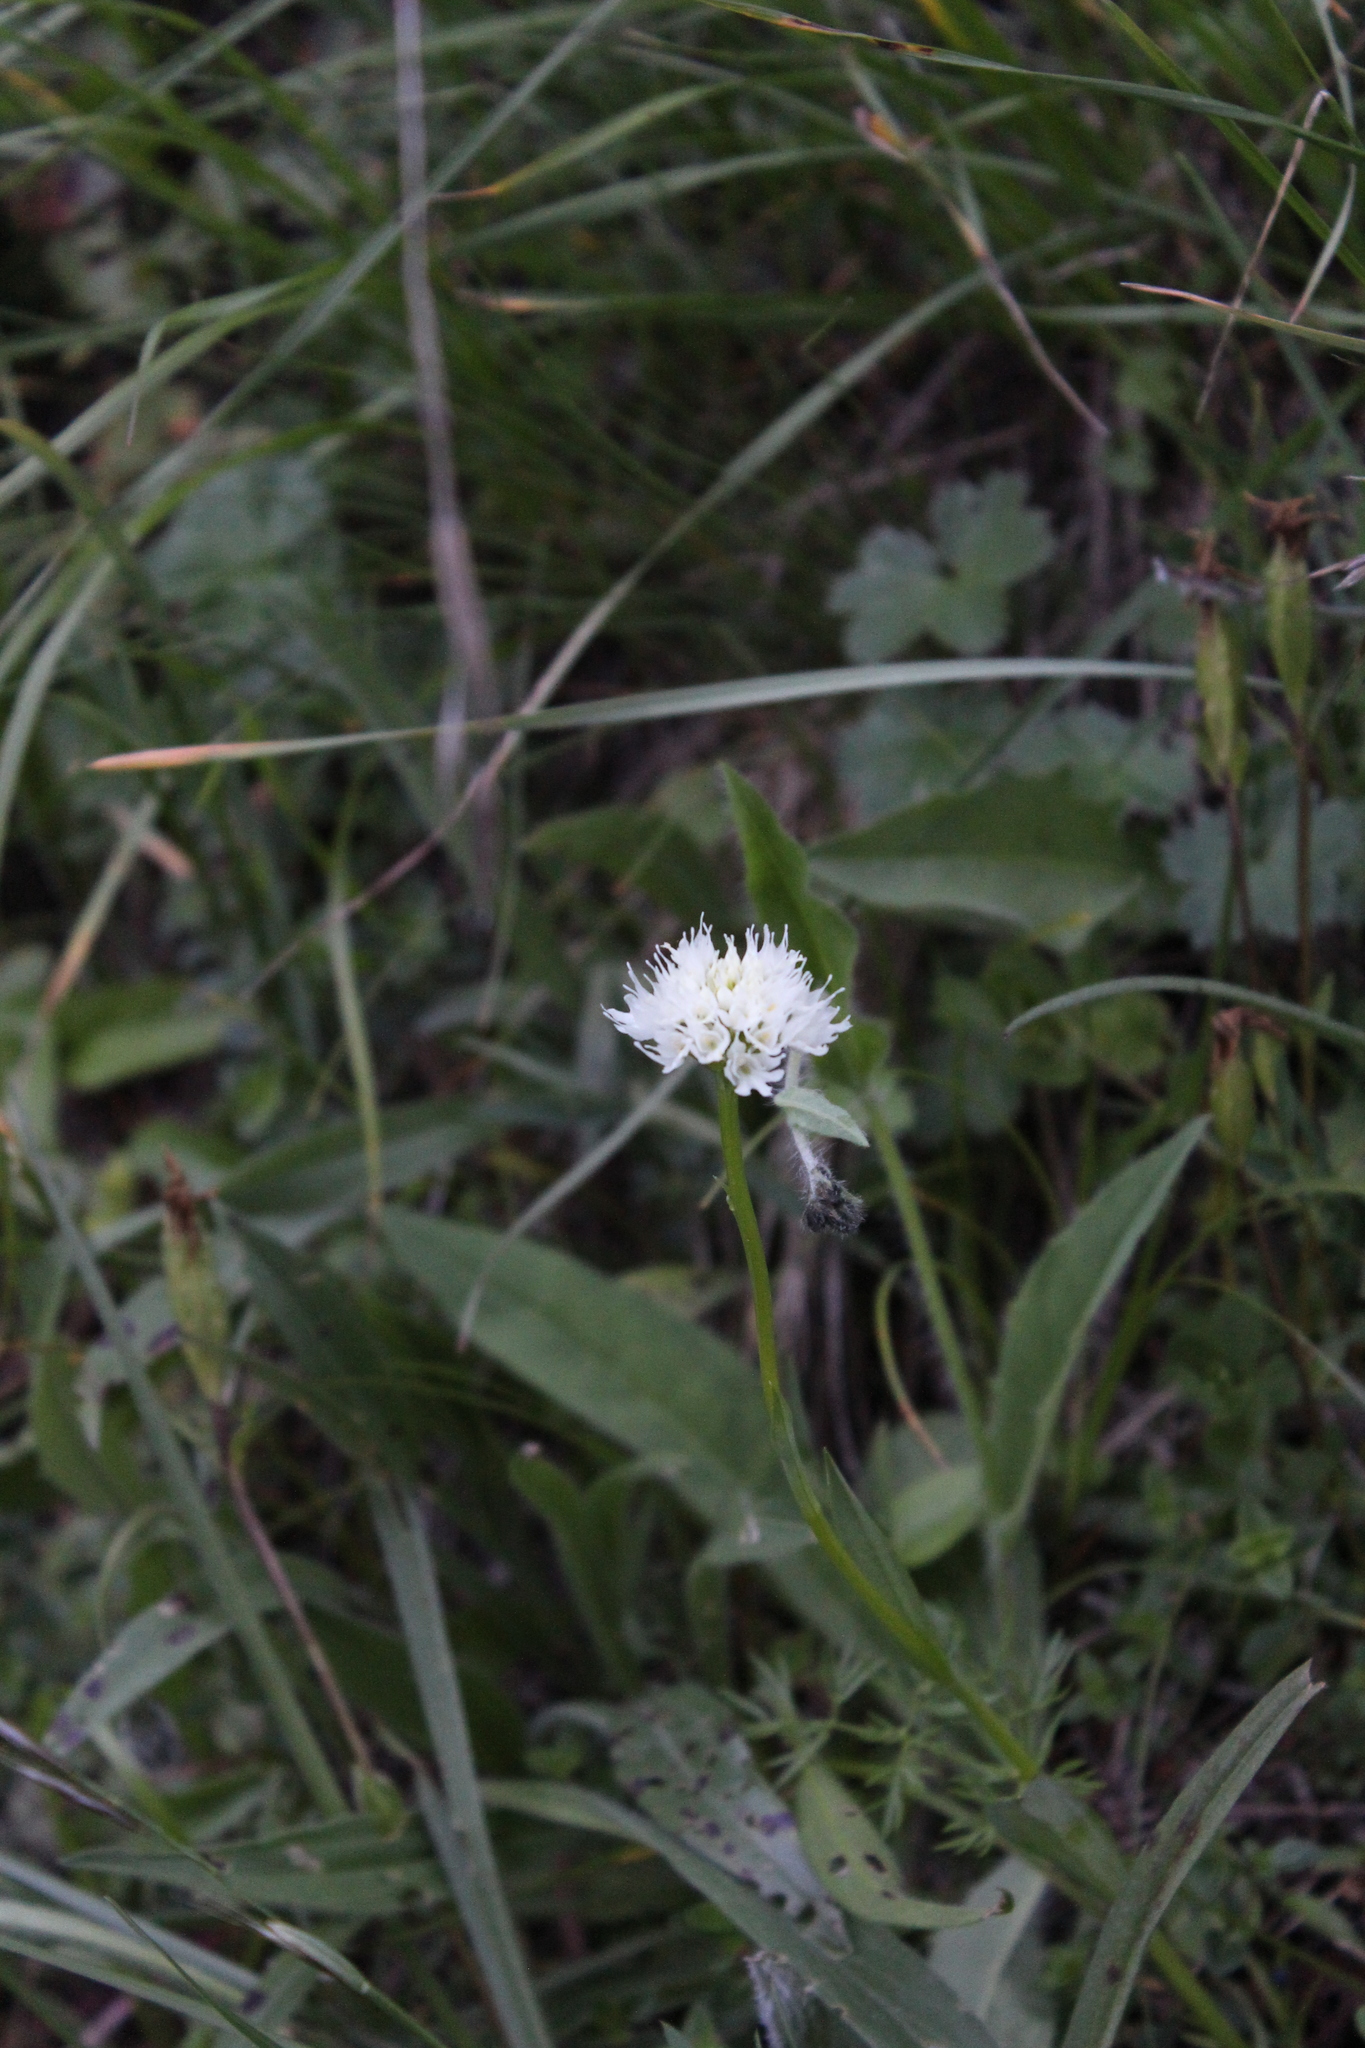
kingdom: Plantae
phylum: Tracheophyta
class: Liliopsida
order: Asparagales
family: Orchidaceae
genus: Traunsteinera
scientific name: Traunsteinera sphaerica
